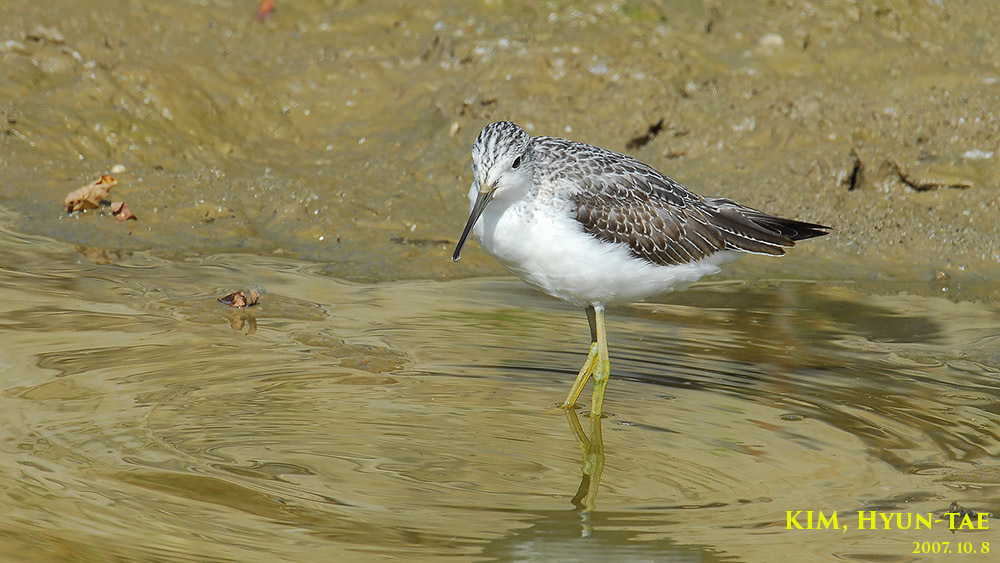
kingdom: Animalia
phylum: Chordata
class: Aves
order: Charadriiformes
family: Scolopacidae
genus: Tringa
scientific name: Tringa nebularia
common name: Common greenshank
